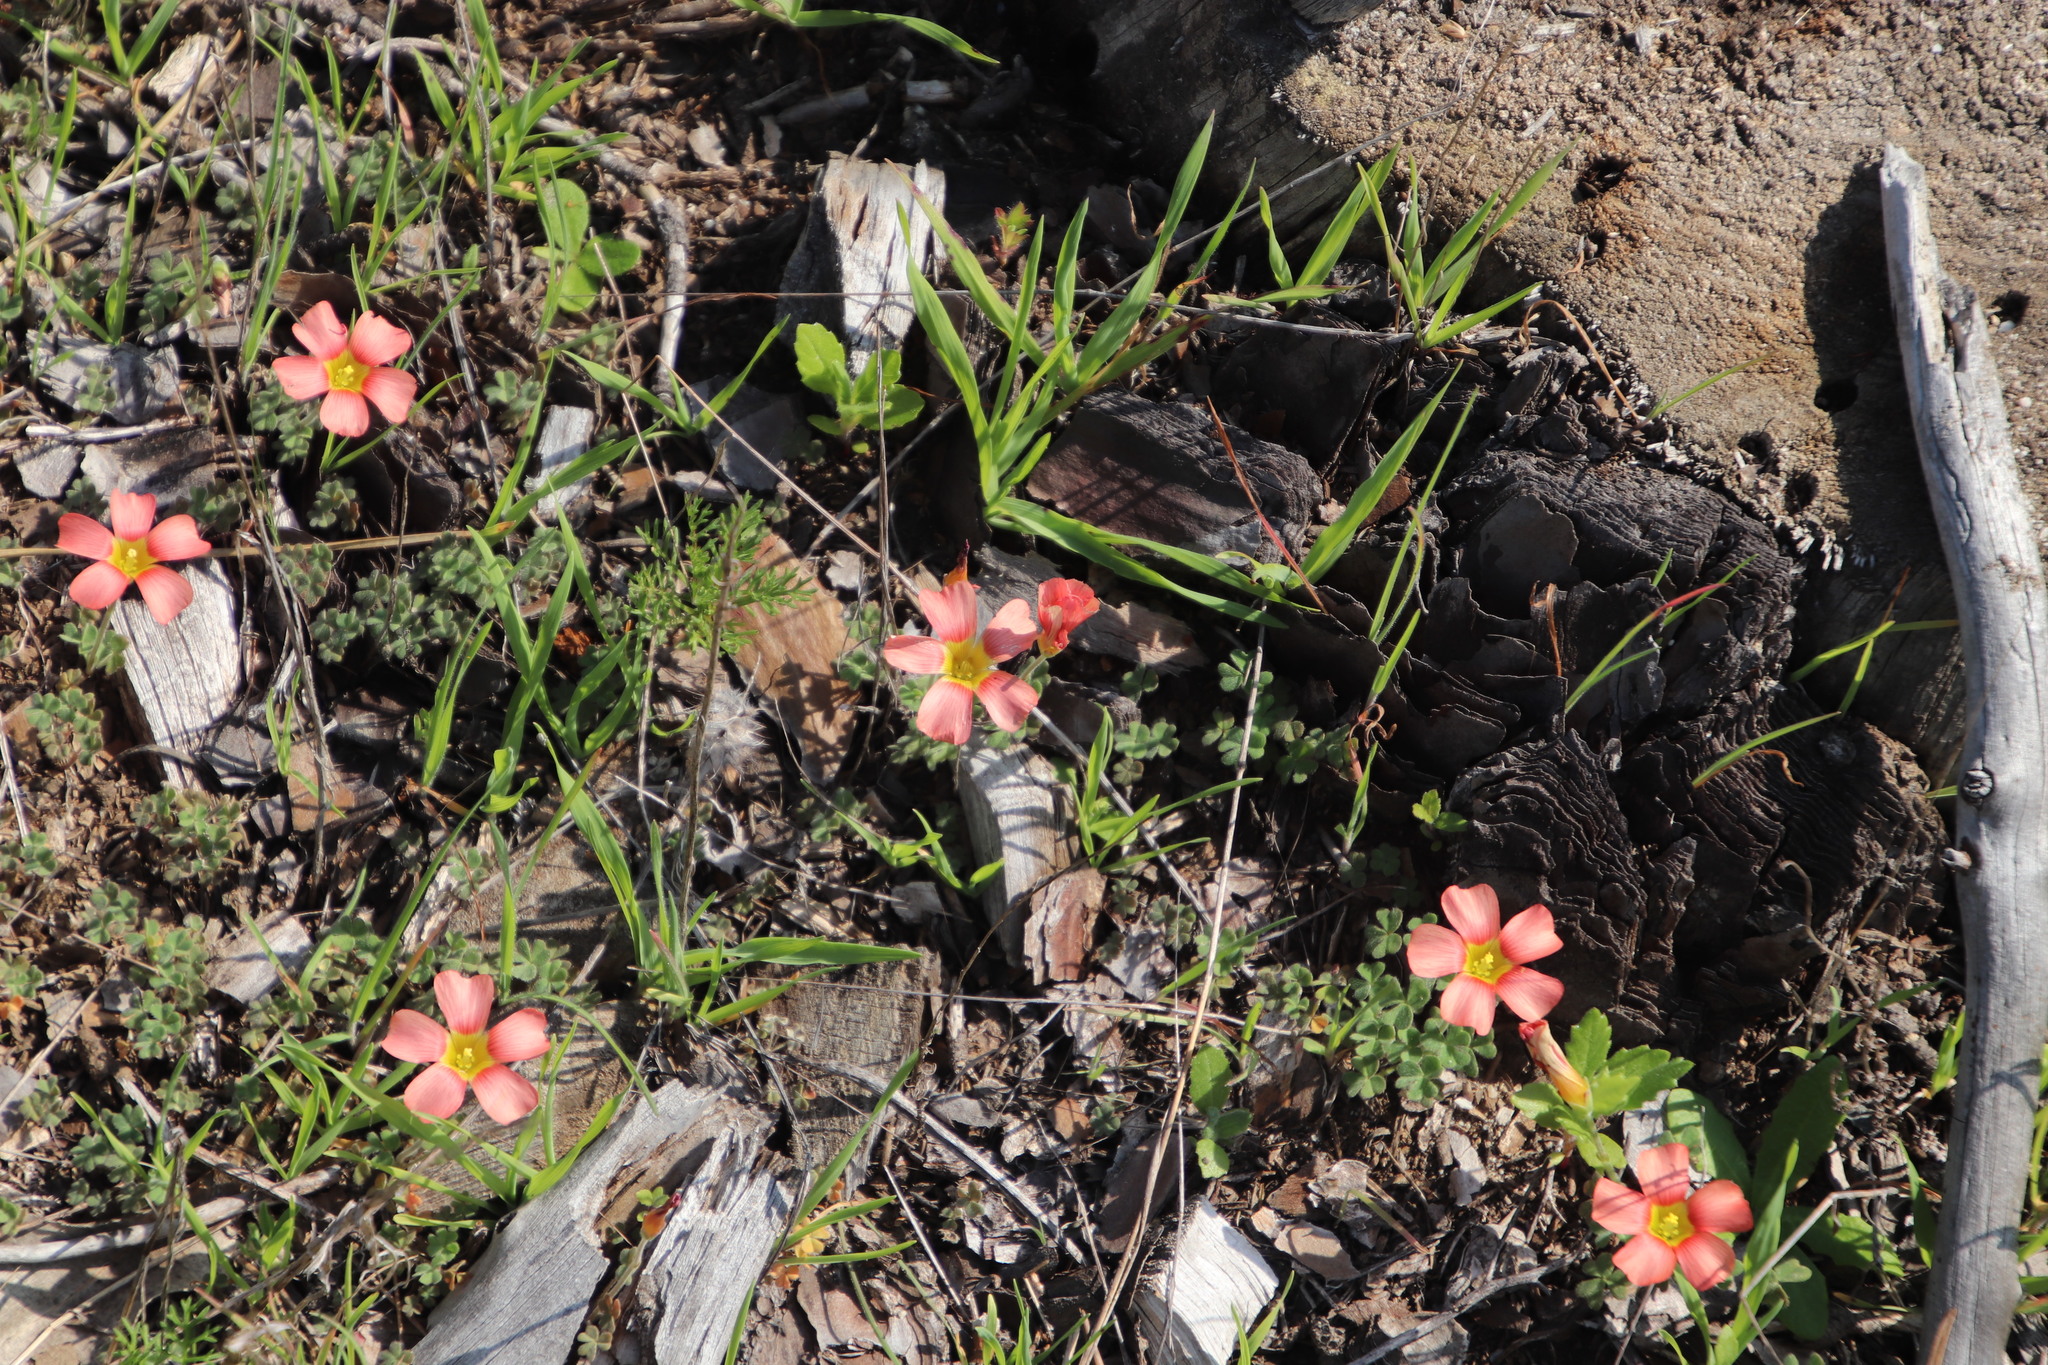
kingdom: Plantae
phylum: Tracheophyta
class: Magnoliopsida
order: Oxalidales
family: Oxalidaceae
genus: Oxalis
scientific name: Oxalis obtusa
